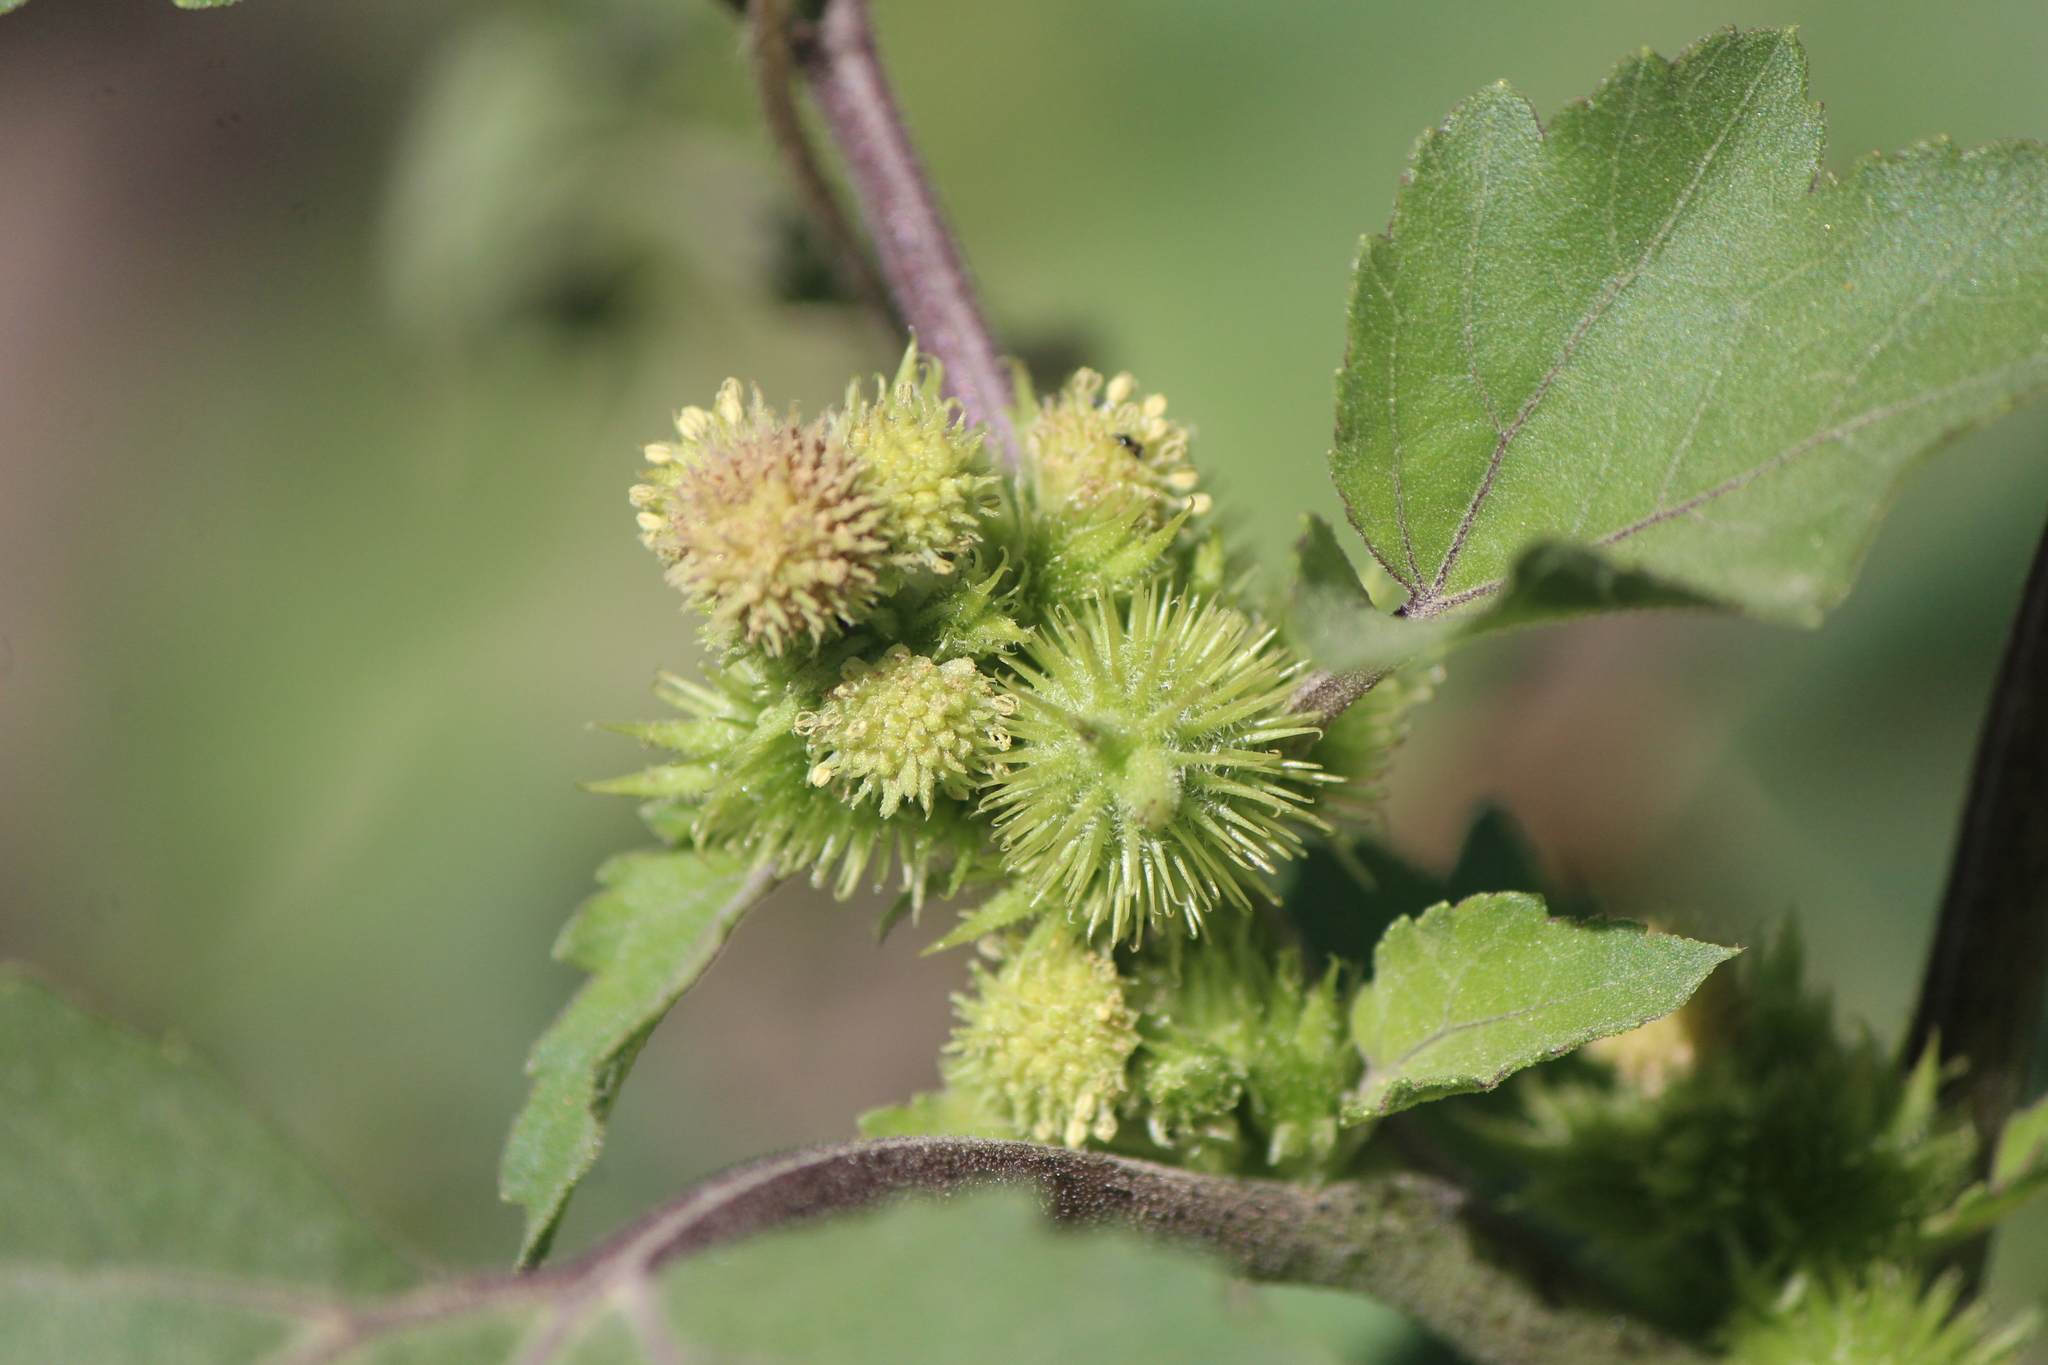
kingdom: Plantae
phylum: Tracheophyta
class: Magnoliopsida
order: Asterales
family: Asteraceae
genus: Xanthium
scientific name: Xanthium strumarium
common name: Rough cocklebur
